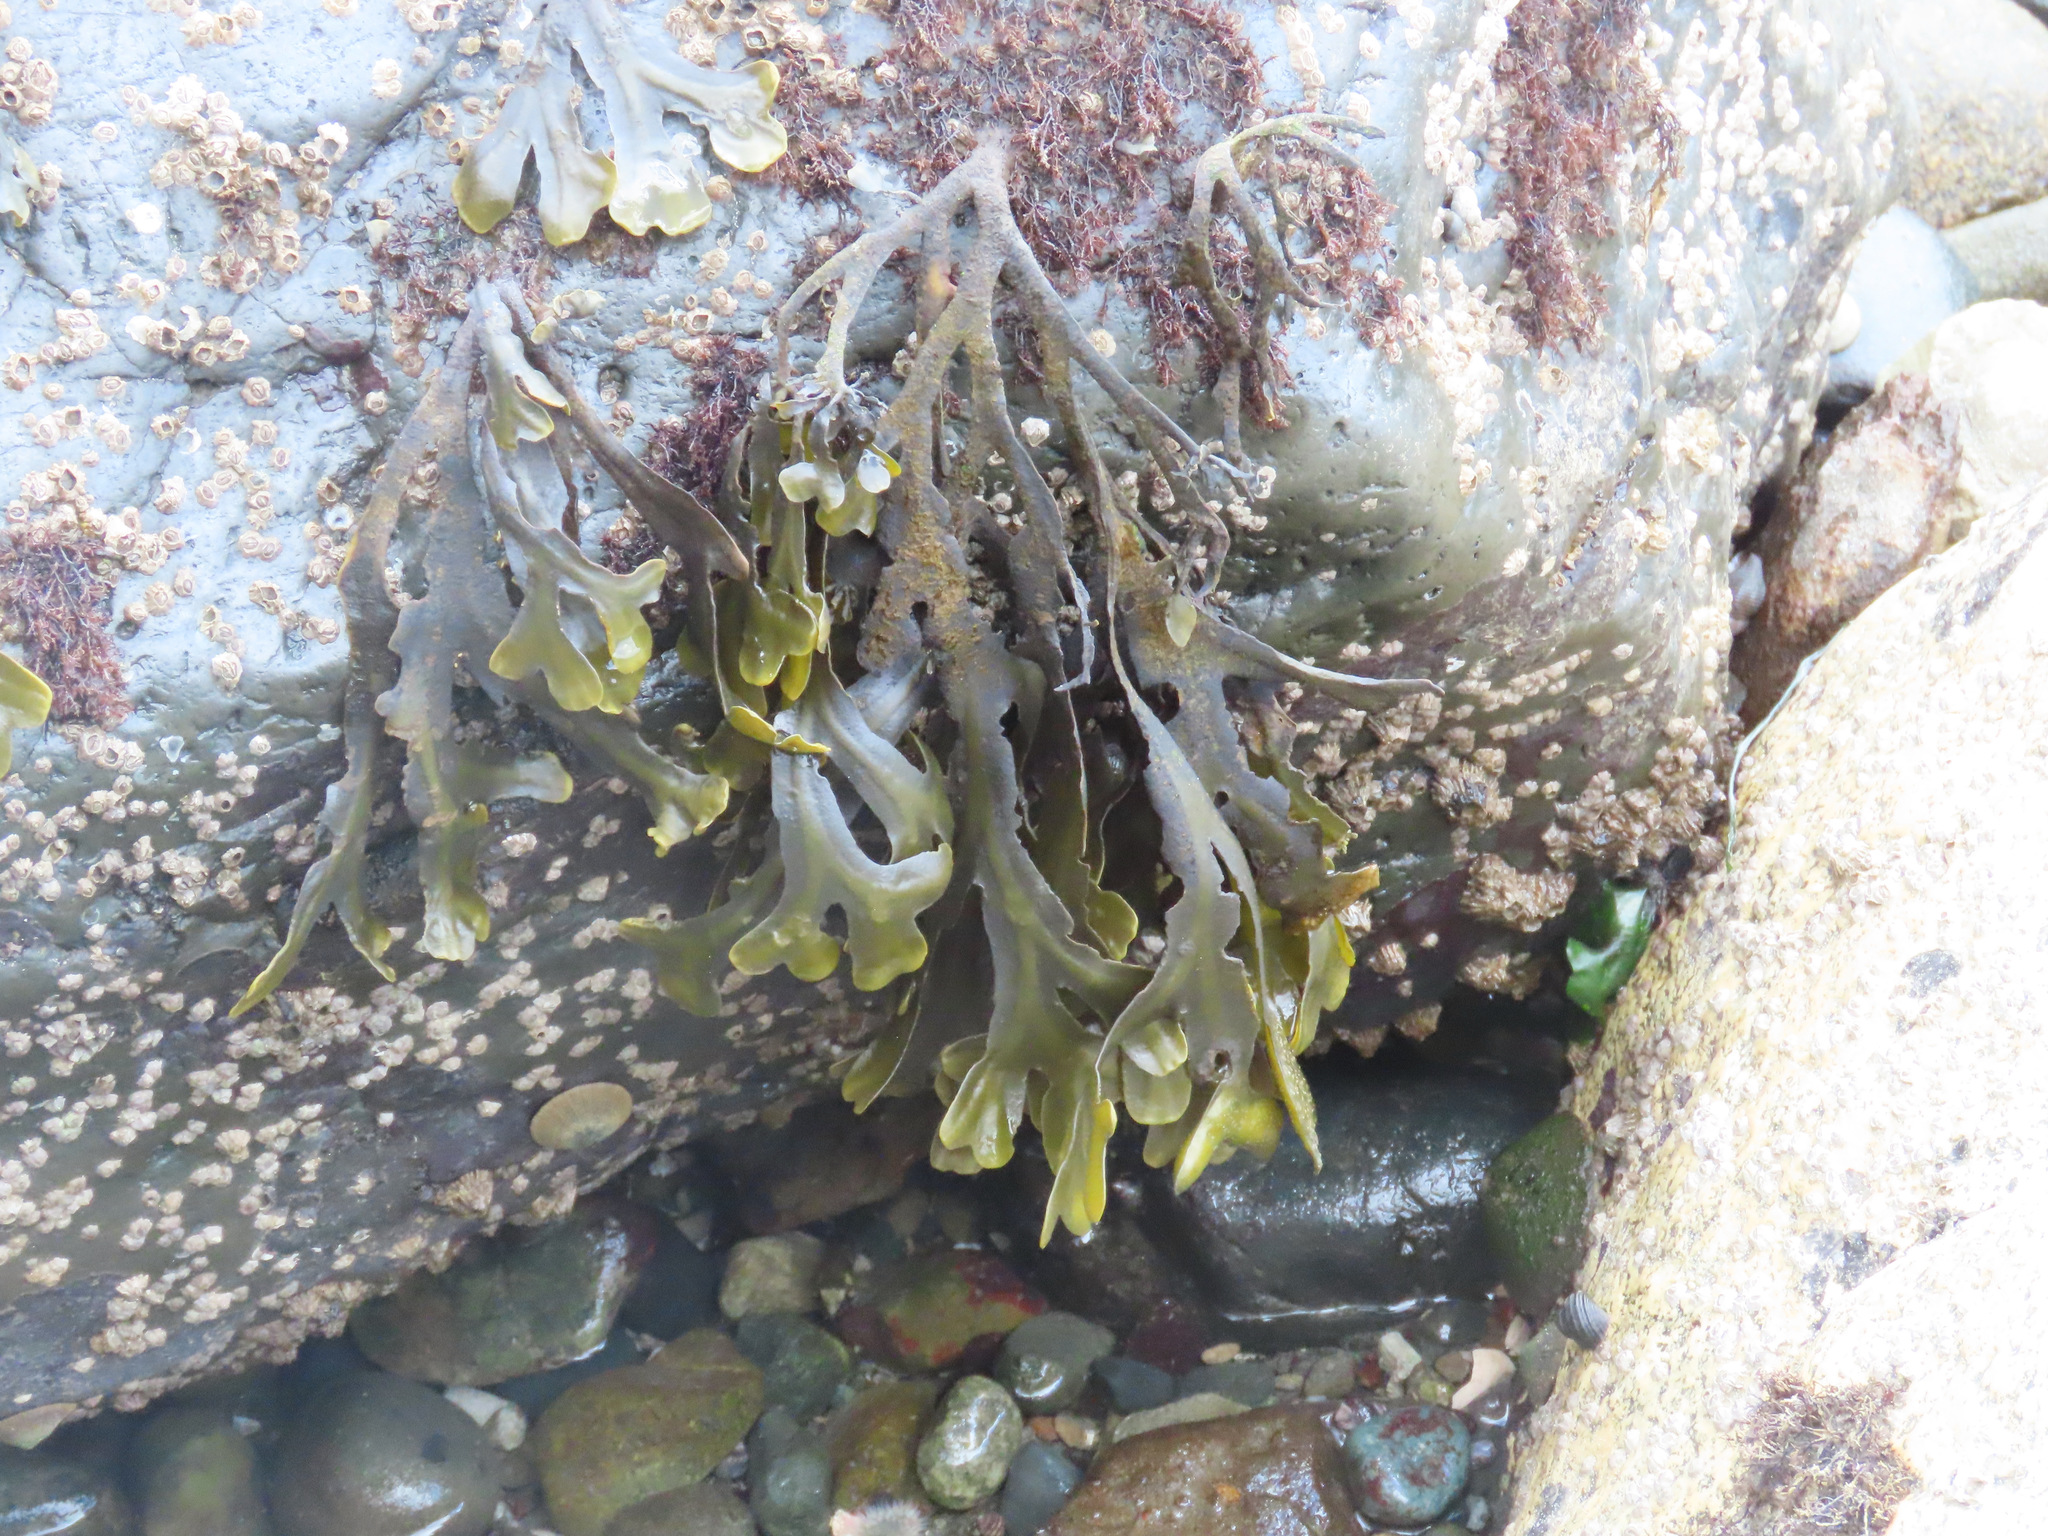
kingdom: Chromista
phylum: Ochrophyta
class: Phaeophyceae
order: Fucales
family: Fucaceae
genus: Fucus
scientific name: Fucus distichus
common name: Rockweed
